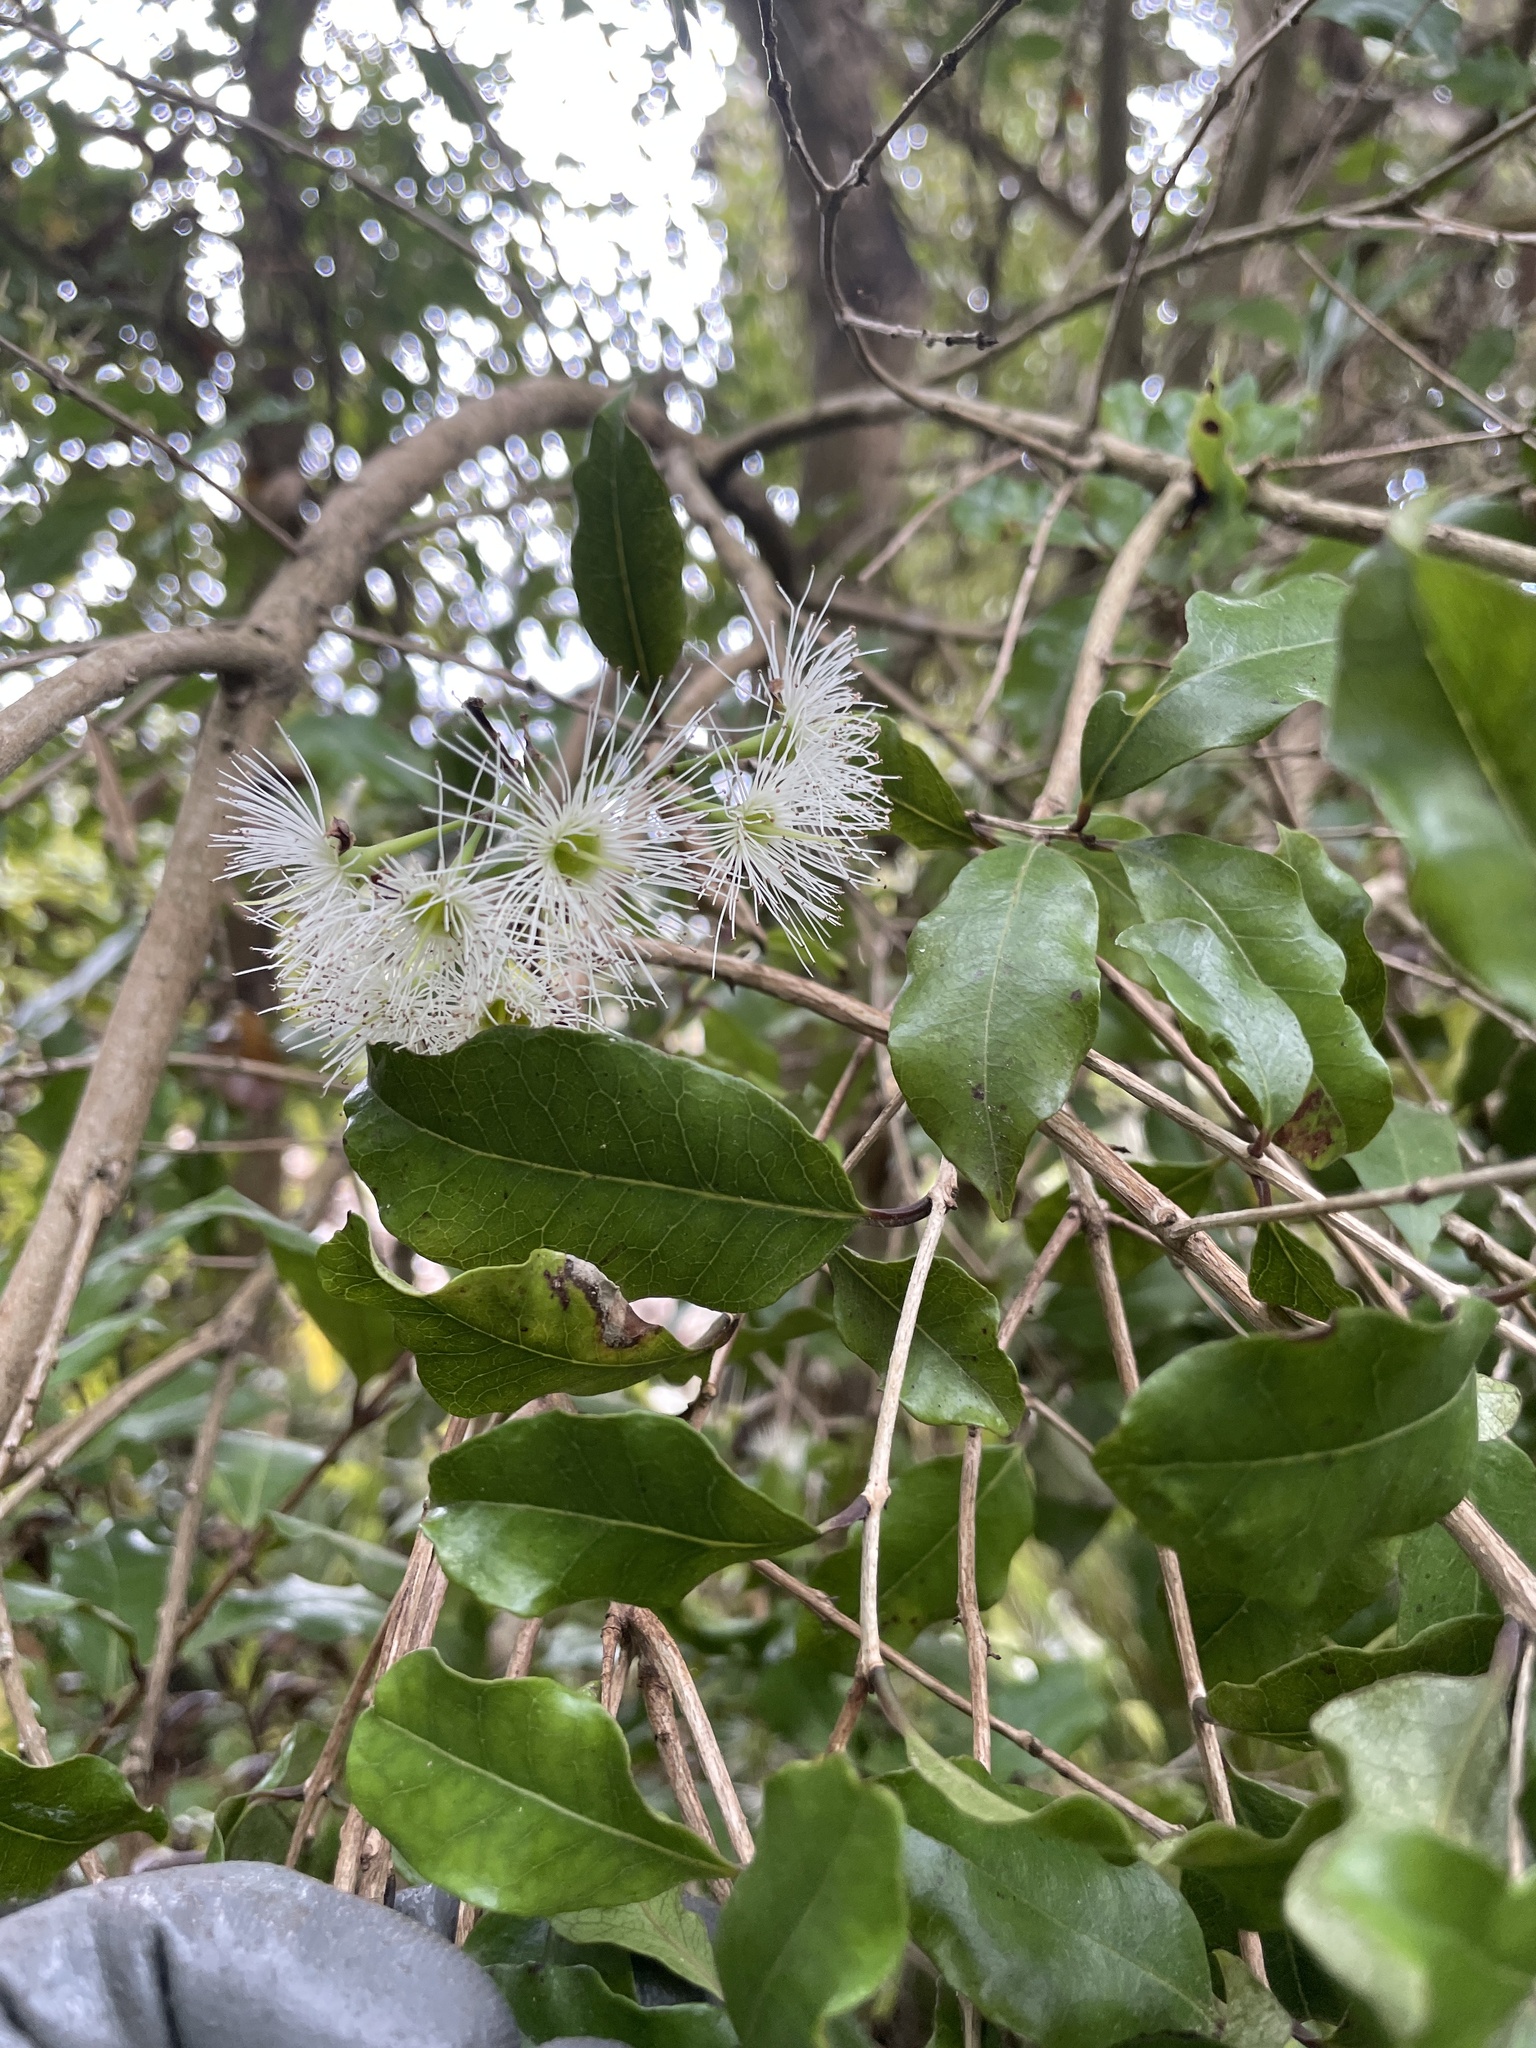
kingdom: Plantae
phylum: Tracheophyta
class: Magnoliopsida
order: Myrtales
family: Myrtaceae
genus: Syzygium
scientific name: Syzygium maire
